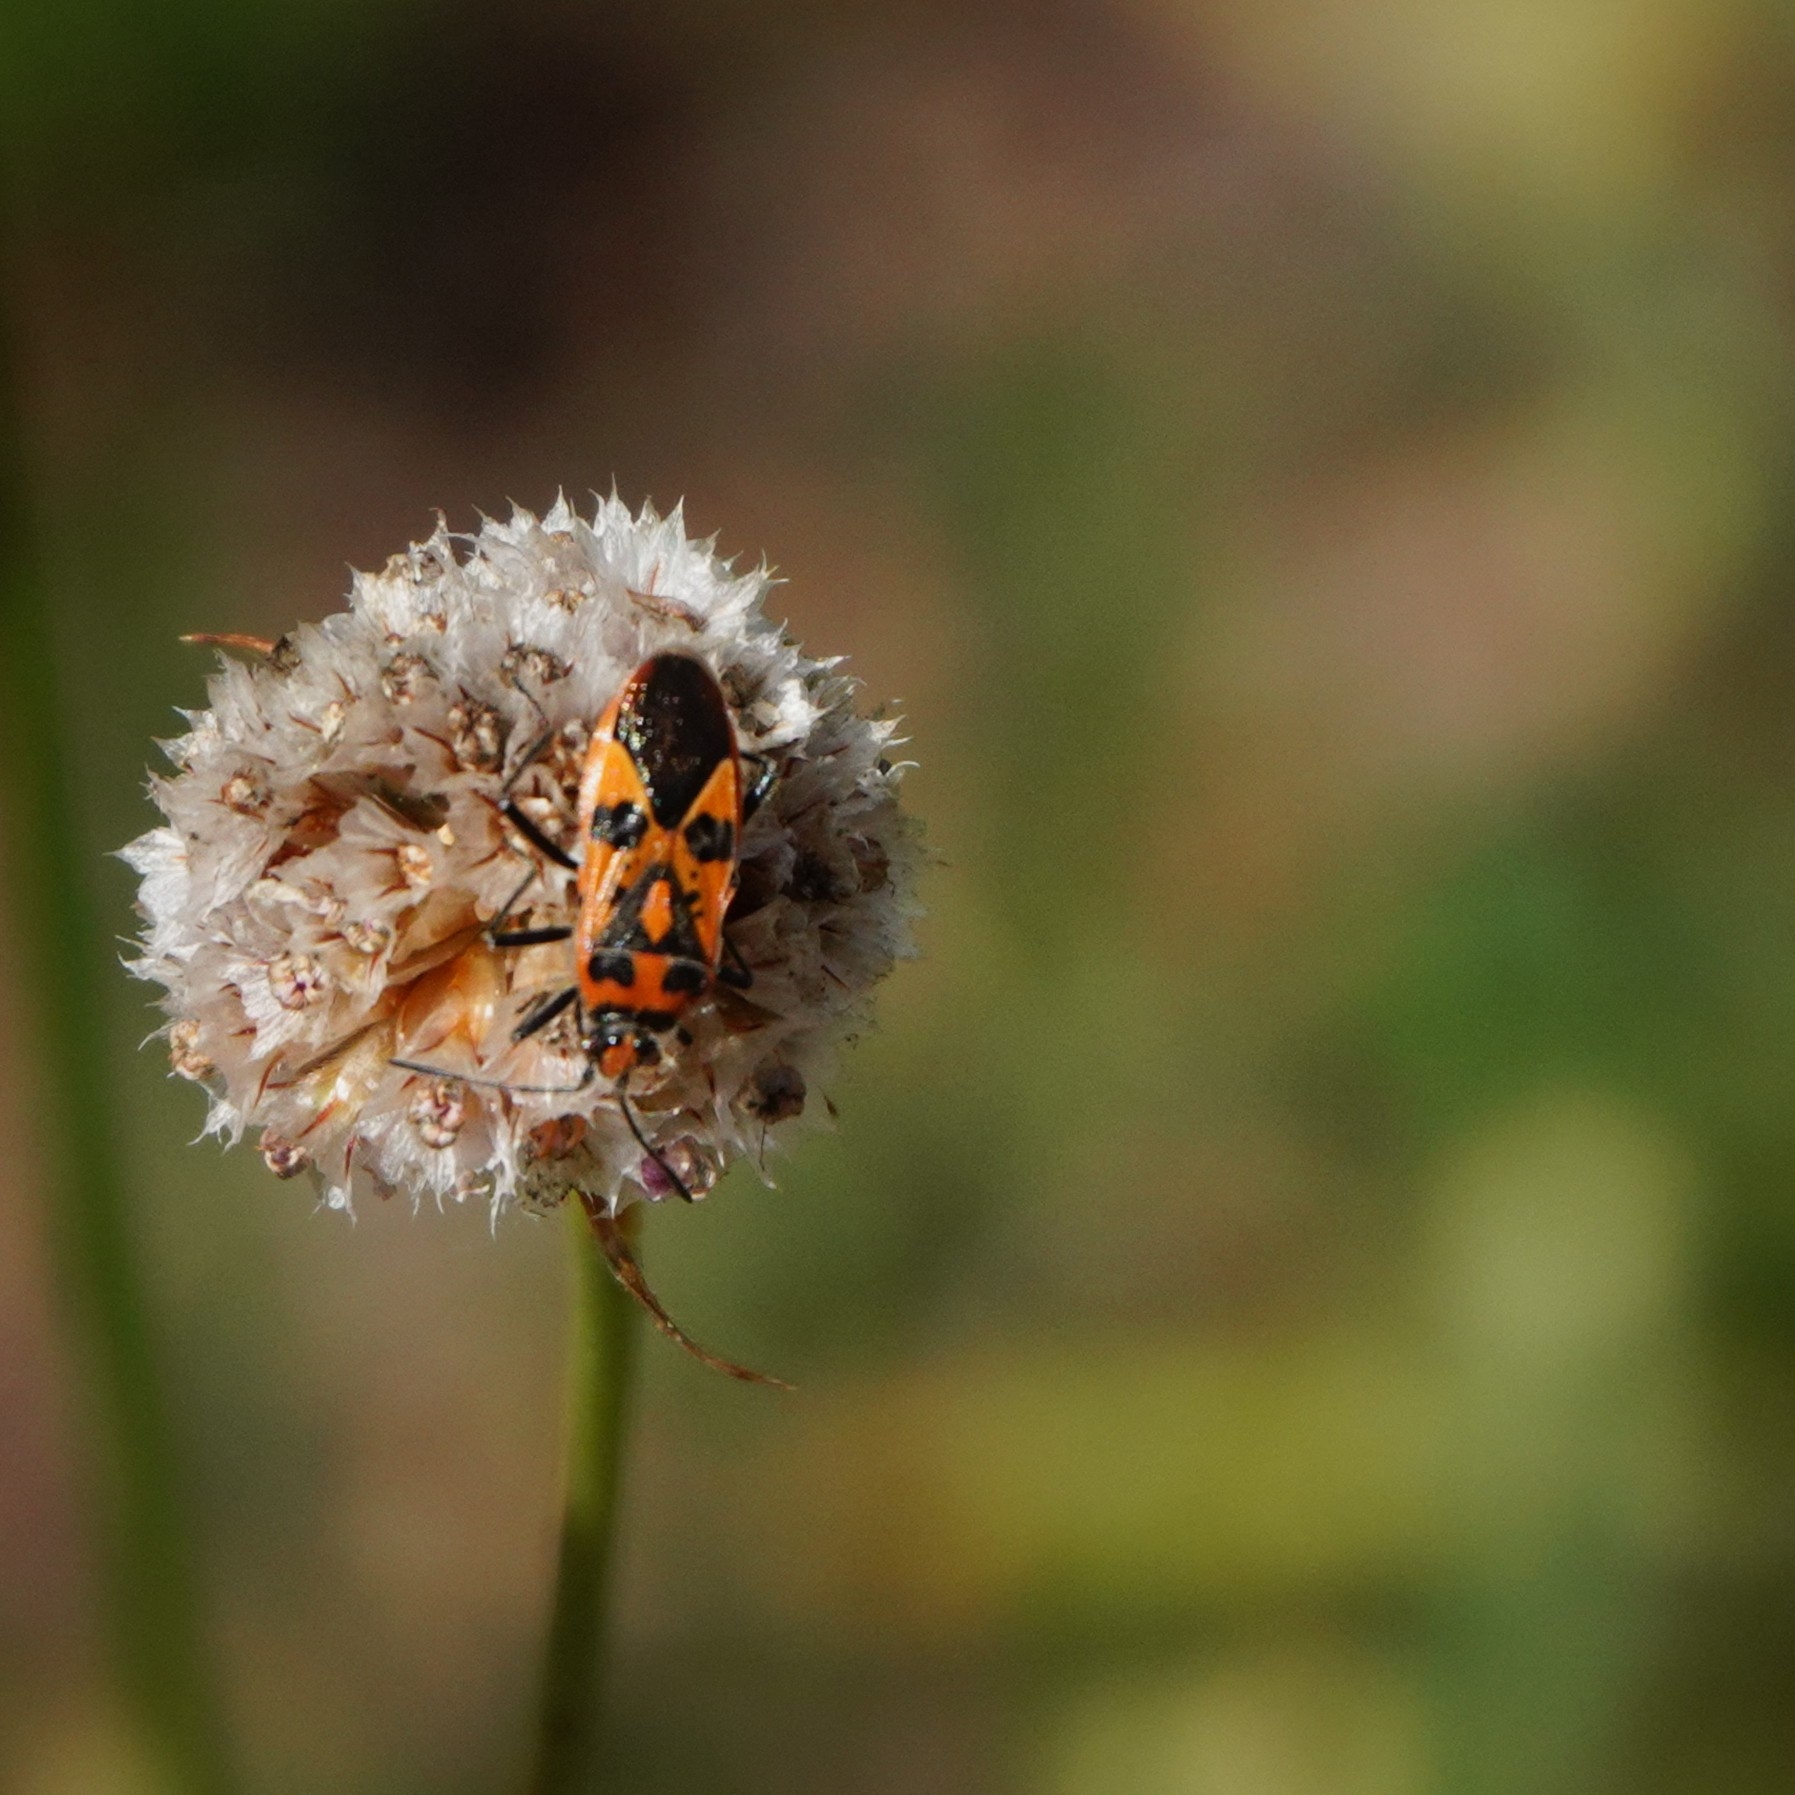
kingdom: Animalia
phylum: Arthropoda
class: Insecta
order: Hemiptera
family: Rhopalidae
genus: Corizus
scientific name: Corizus hyoscyami
